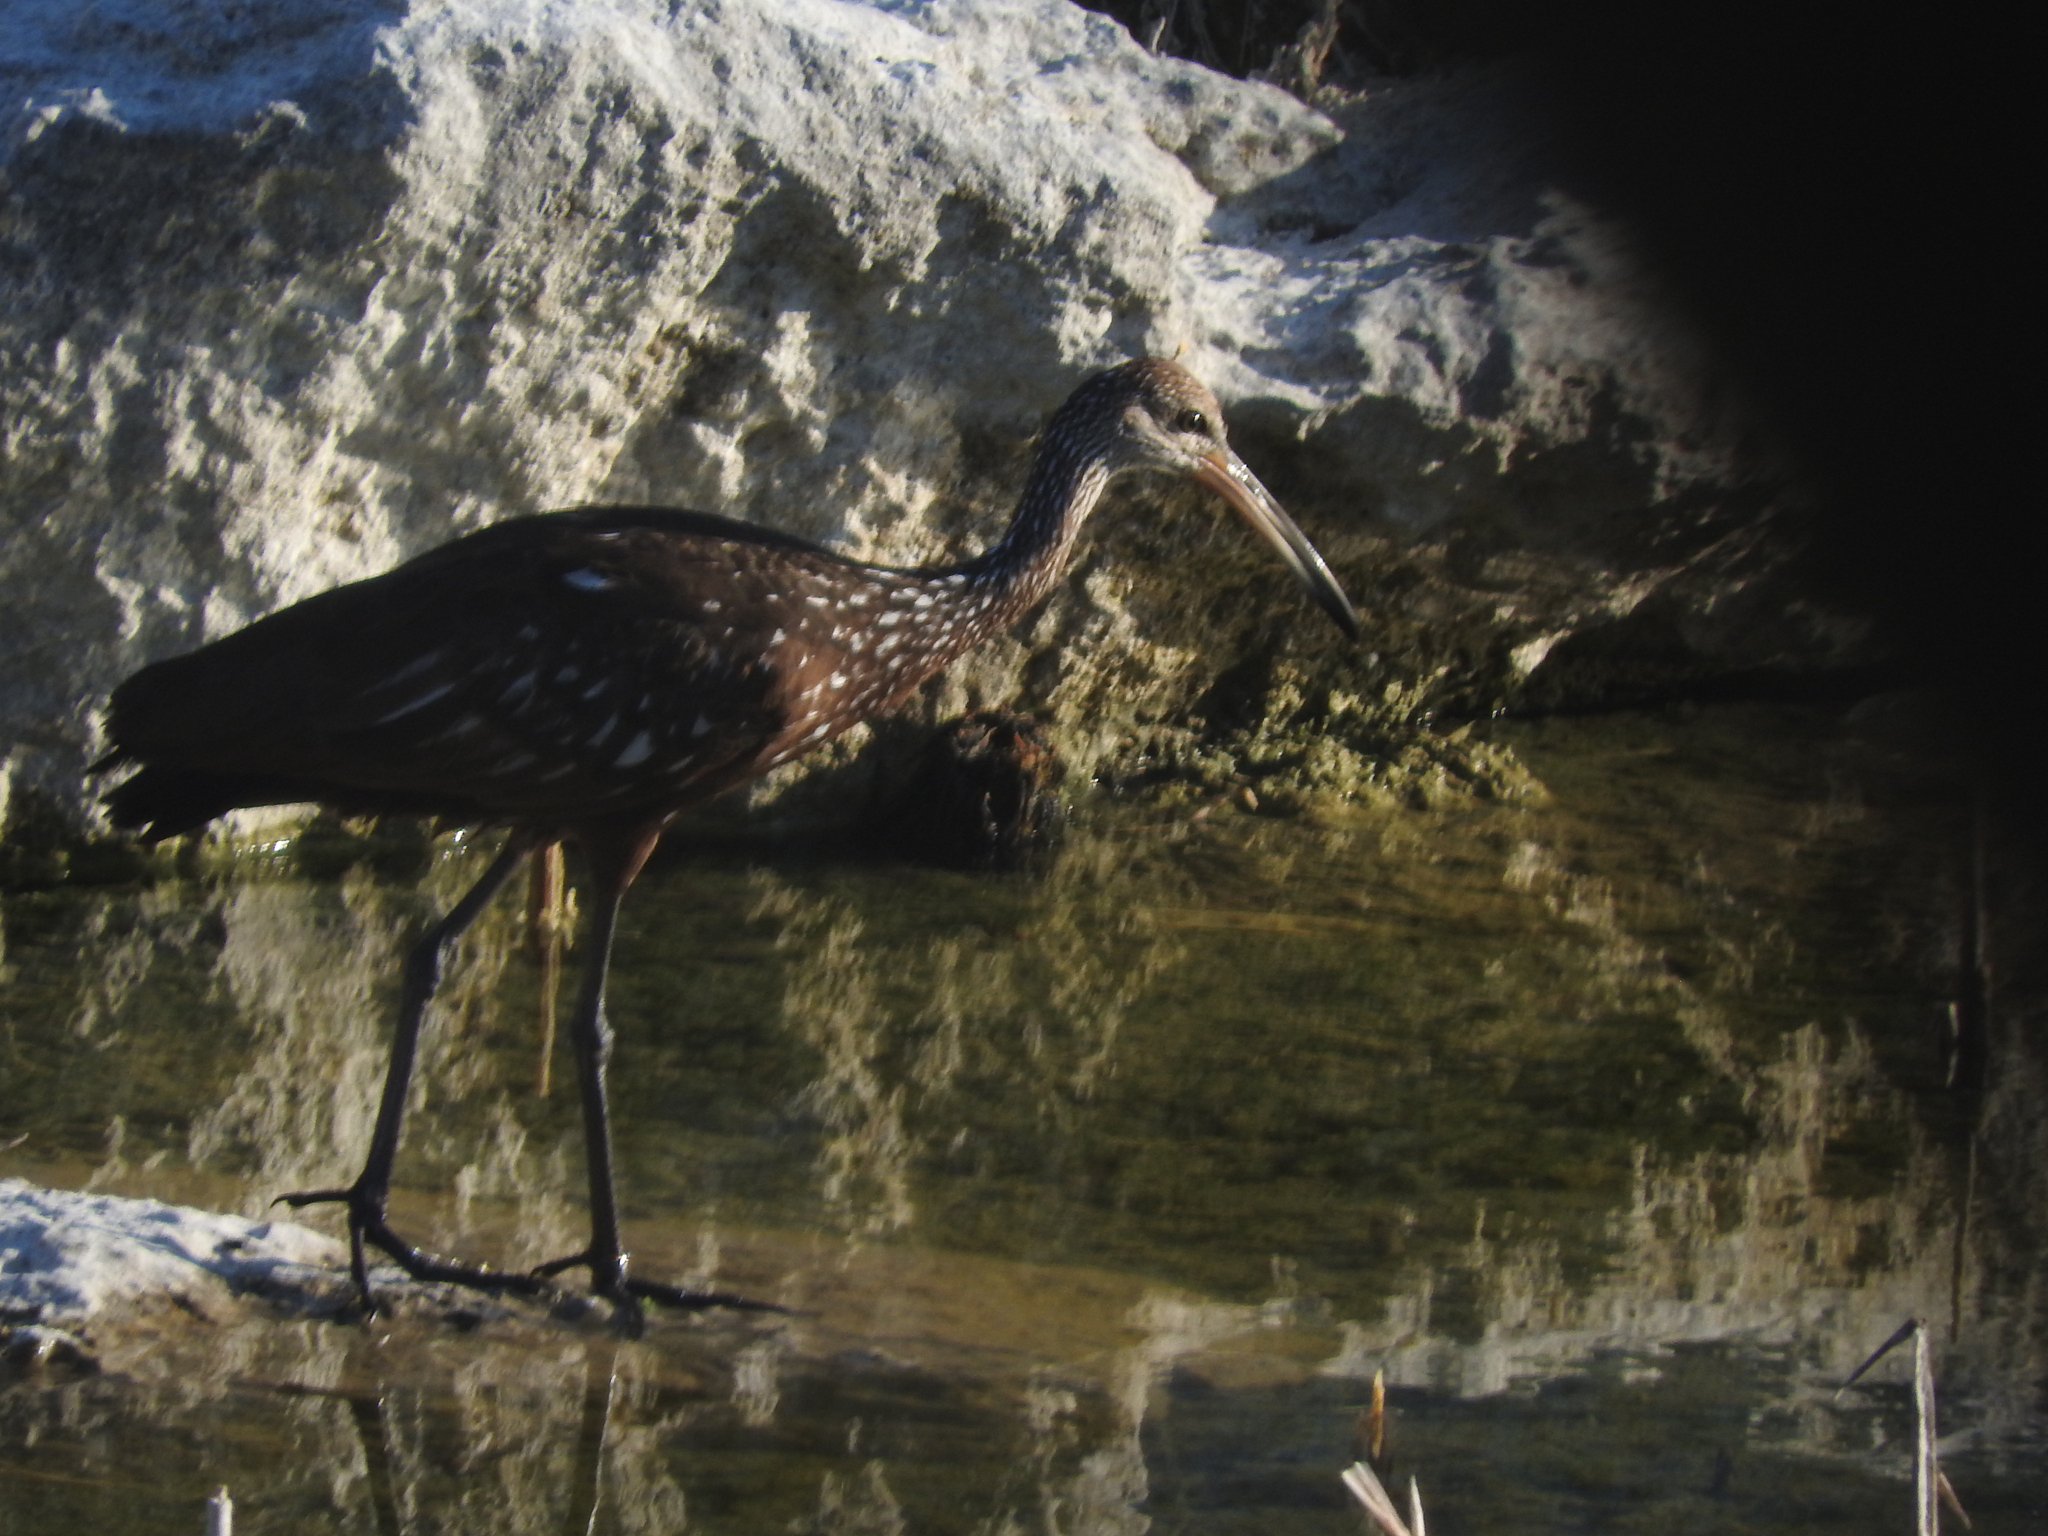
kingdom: Animalia
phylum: Chordata
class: Aves
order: Gruiformes
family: Aramidae
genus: Aramus
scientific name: Aramus guarauna
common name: Limpkin
